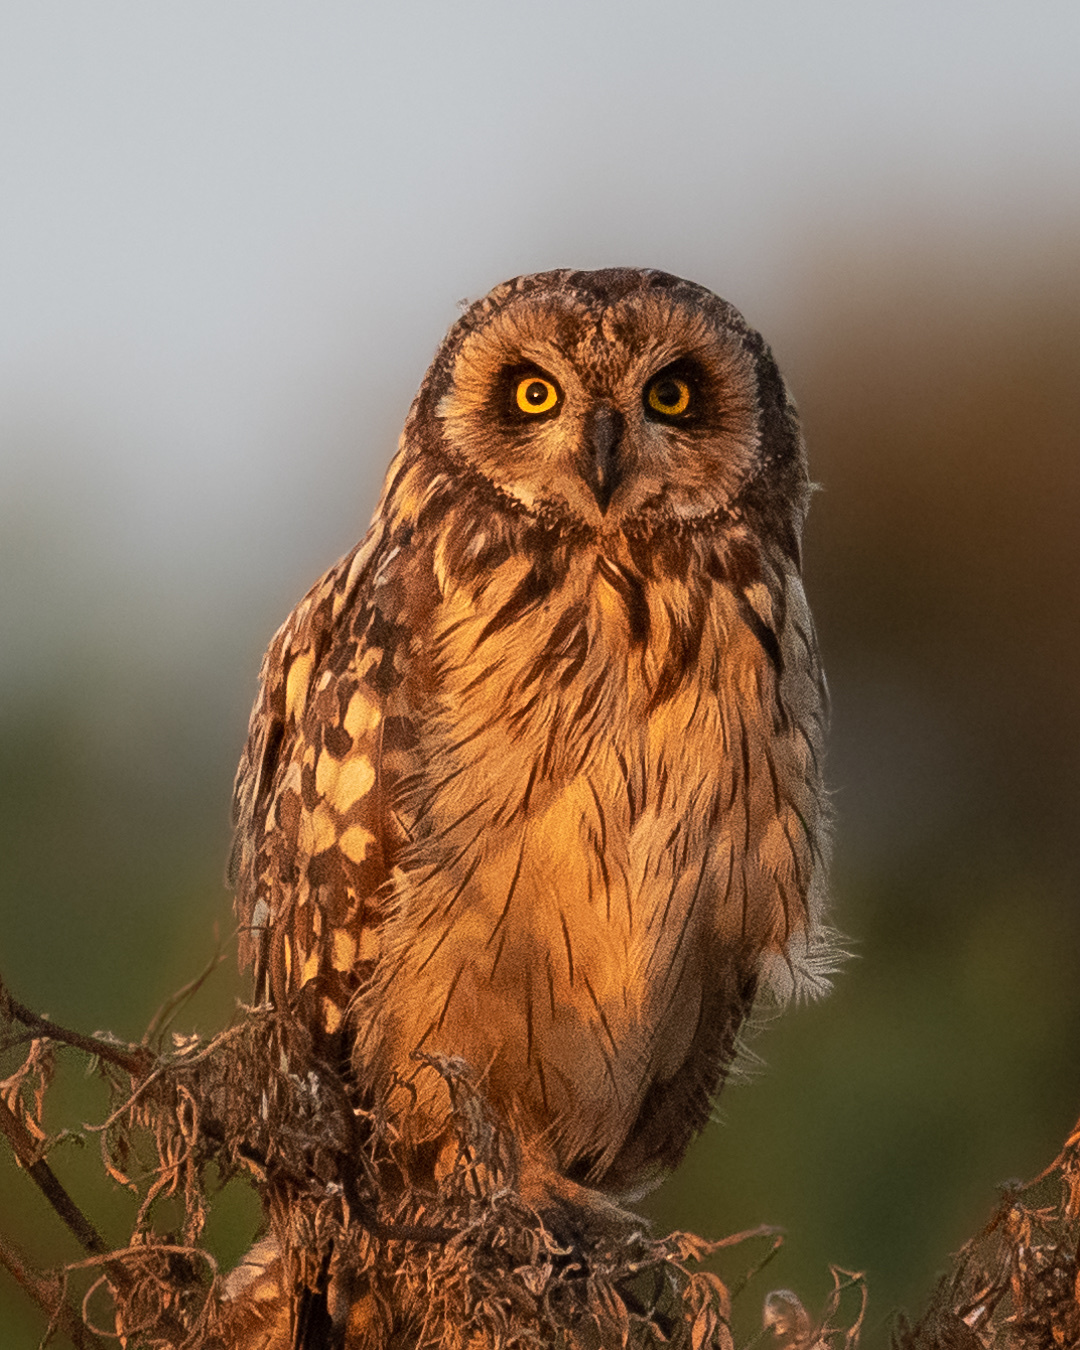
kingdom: Animalia
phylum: Chordata
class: Aves
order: Strigiformes
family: Strigidae
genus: Asio
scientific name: Asio flammeus
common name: Short-eared owl
